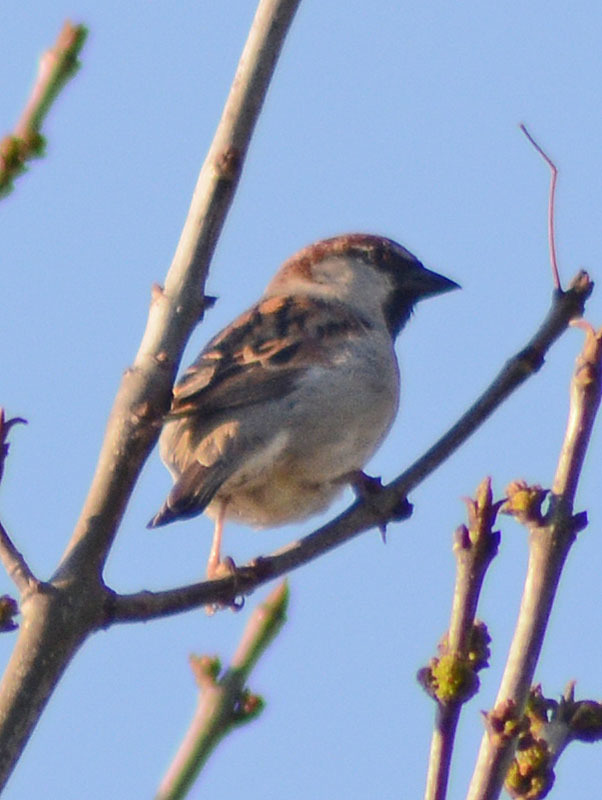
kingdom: Animalia
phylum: Chordata
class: Aves
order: Passeriformes
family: Passeridae
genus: Passer
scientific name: Passer domesticus
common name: House sparrow
